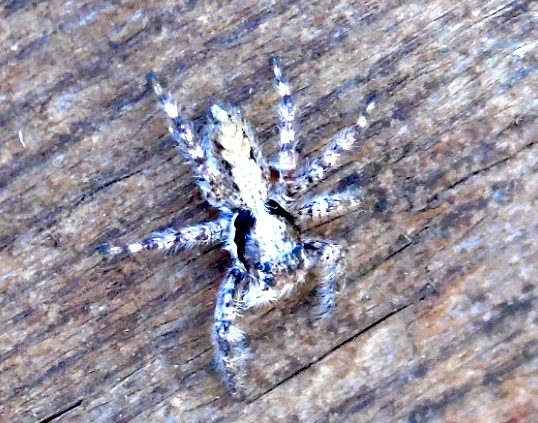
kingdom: Animalia
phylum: Arthropoda
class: Arachnida
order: Araneae
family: Salticidae
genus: Balmaceda
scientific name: Balmaceda
